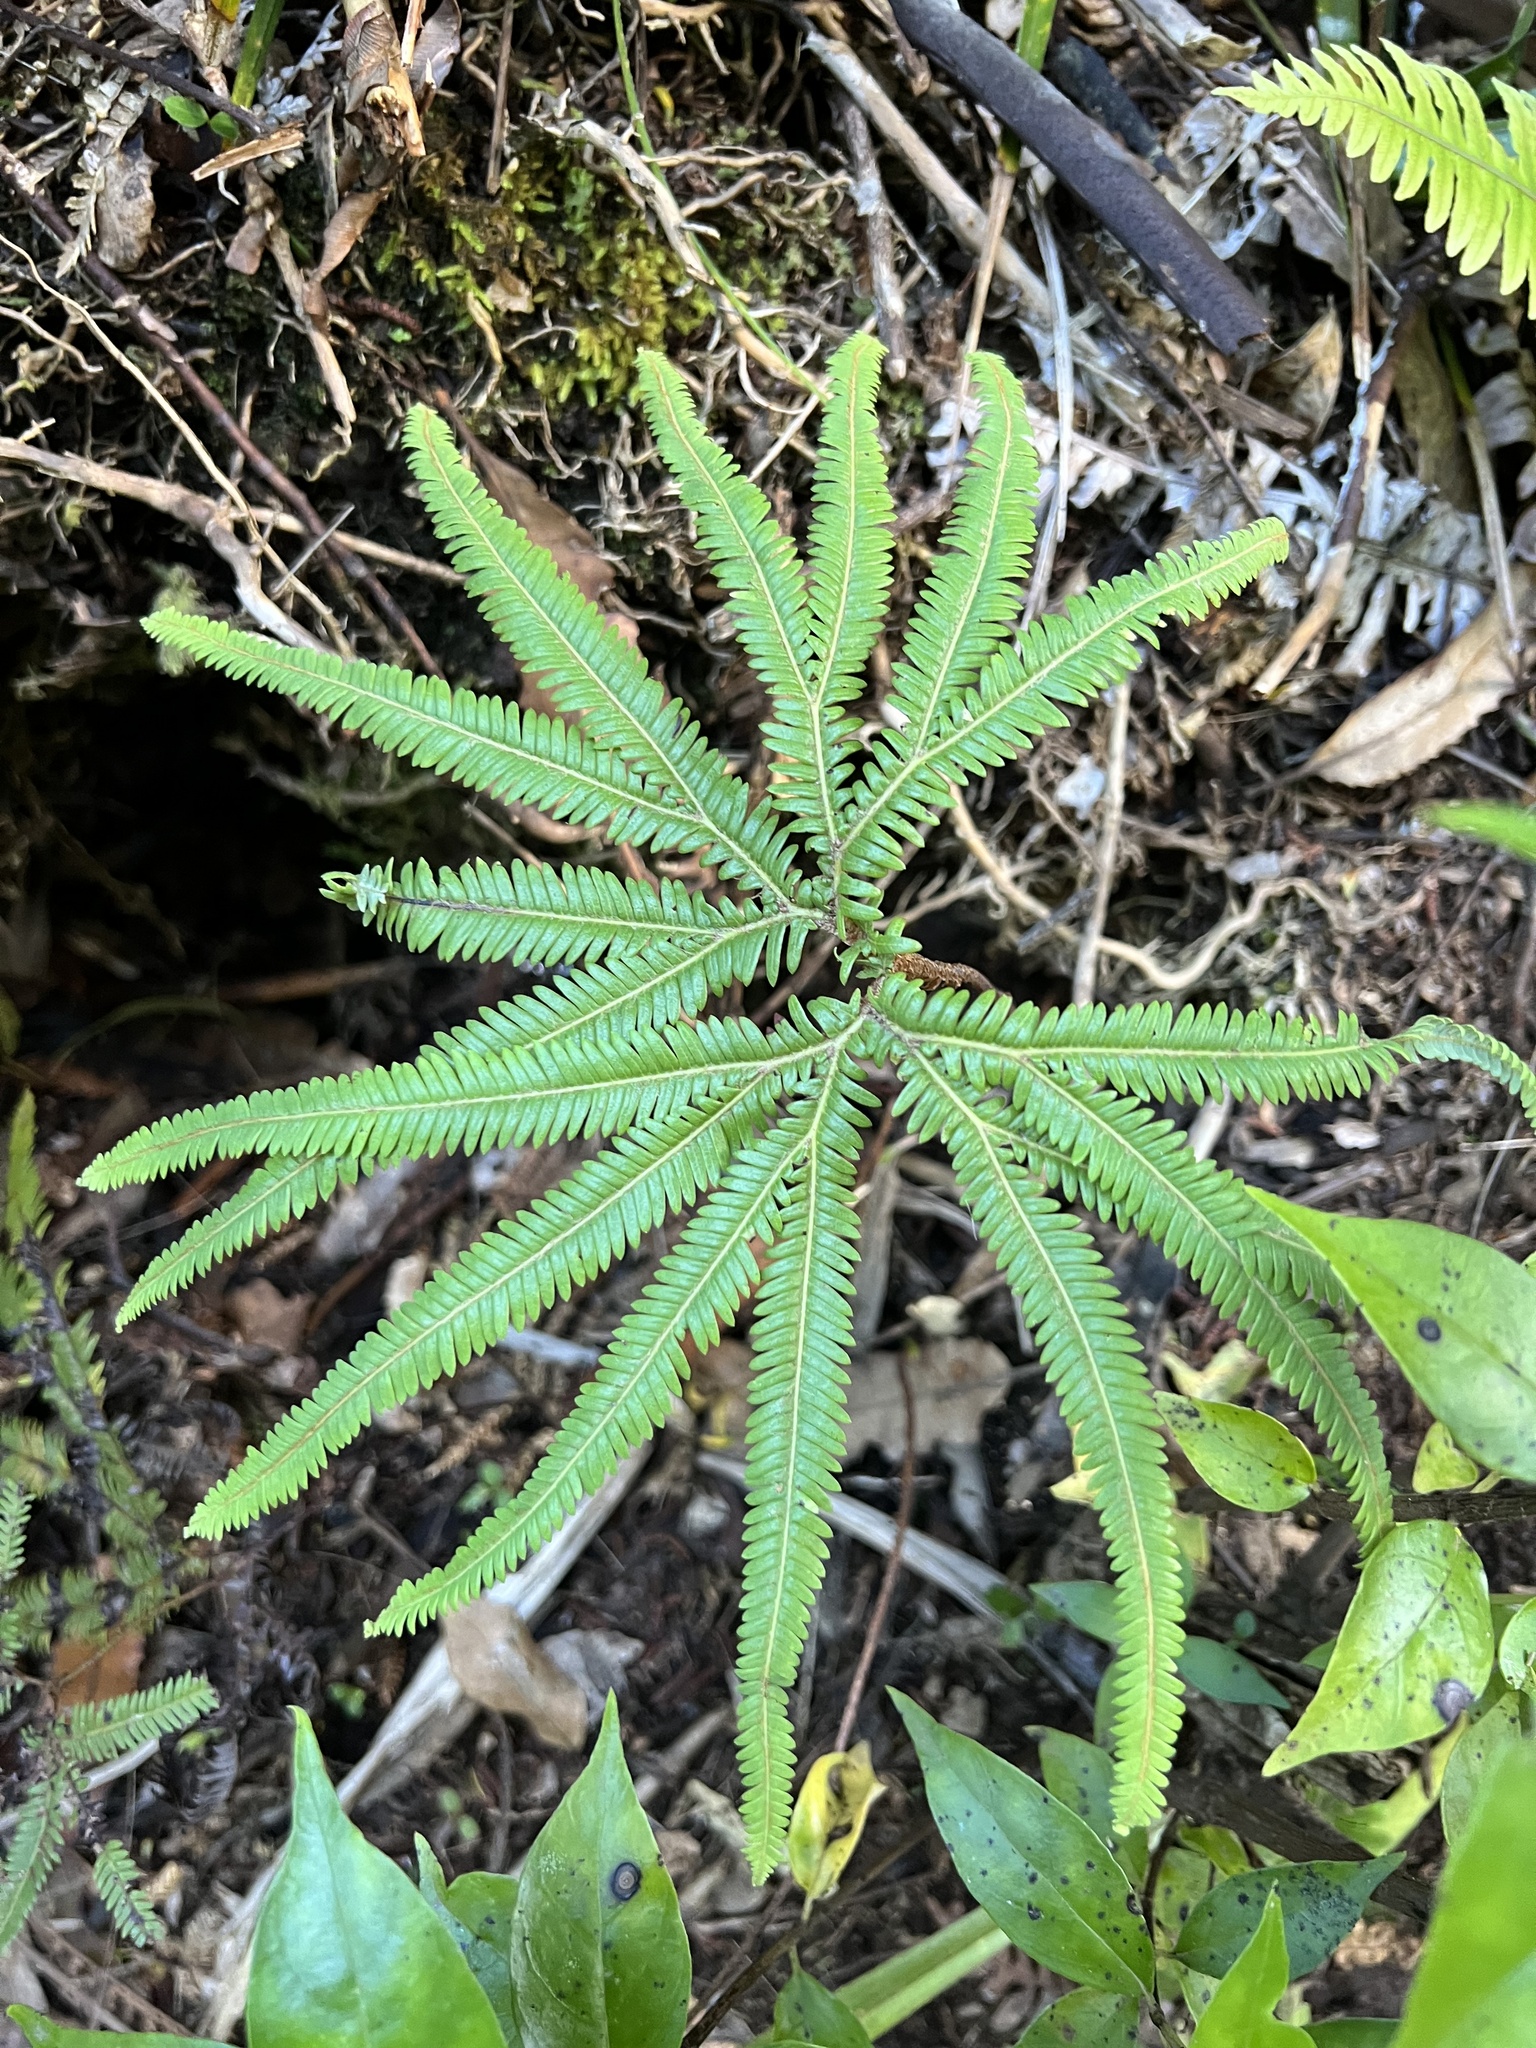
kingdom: Plantae
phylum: Tracheophyta
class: Polypodiopsida
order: Gleicheniales
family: Gleicheniaceae
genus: Sticherus
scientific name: Sticherus cunninghamii
